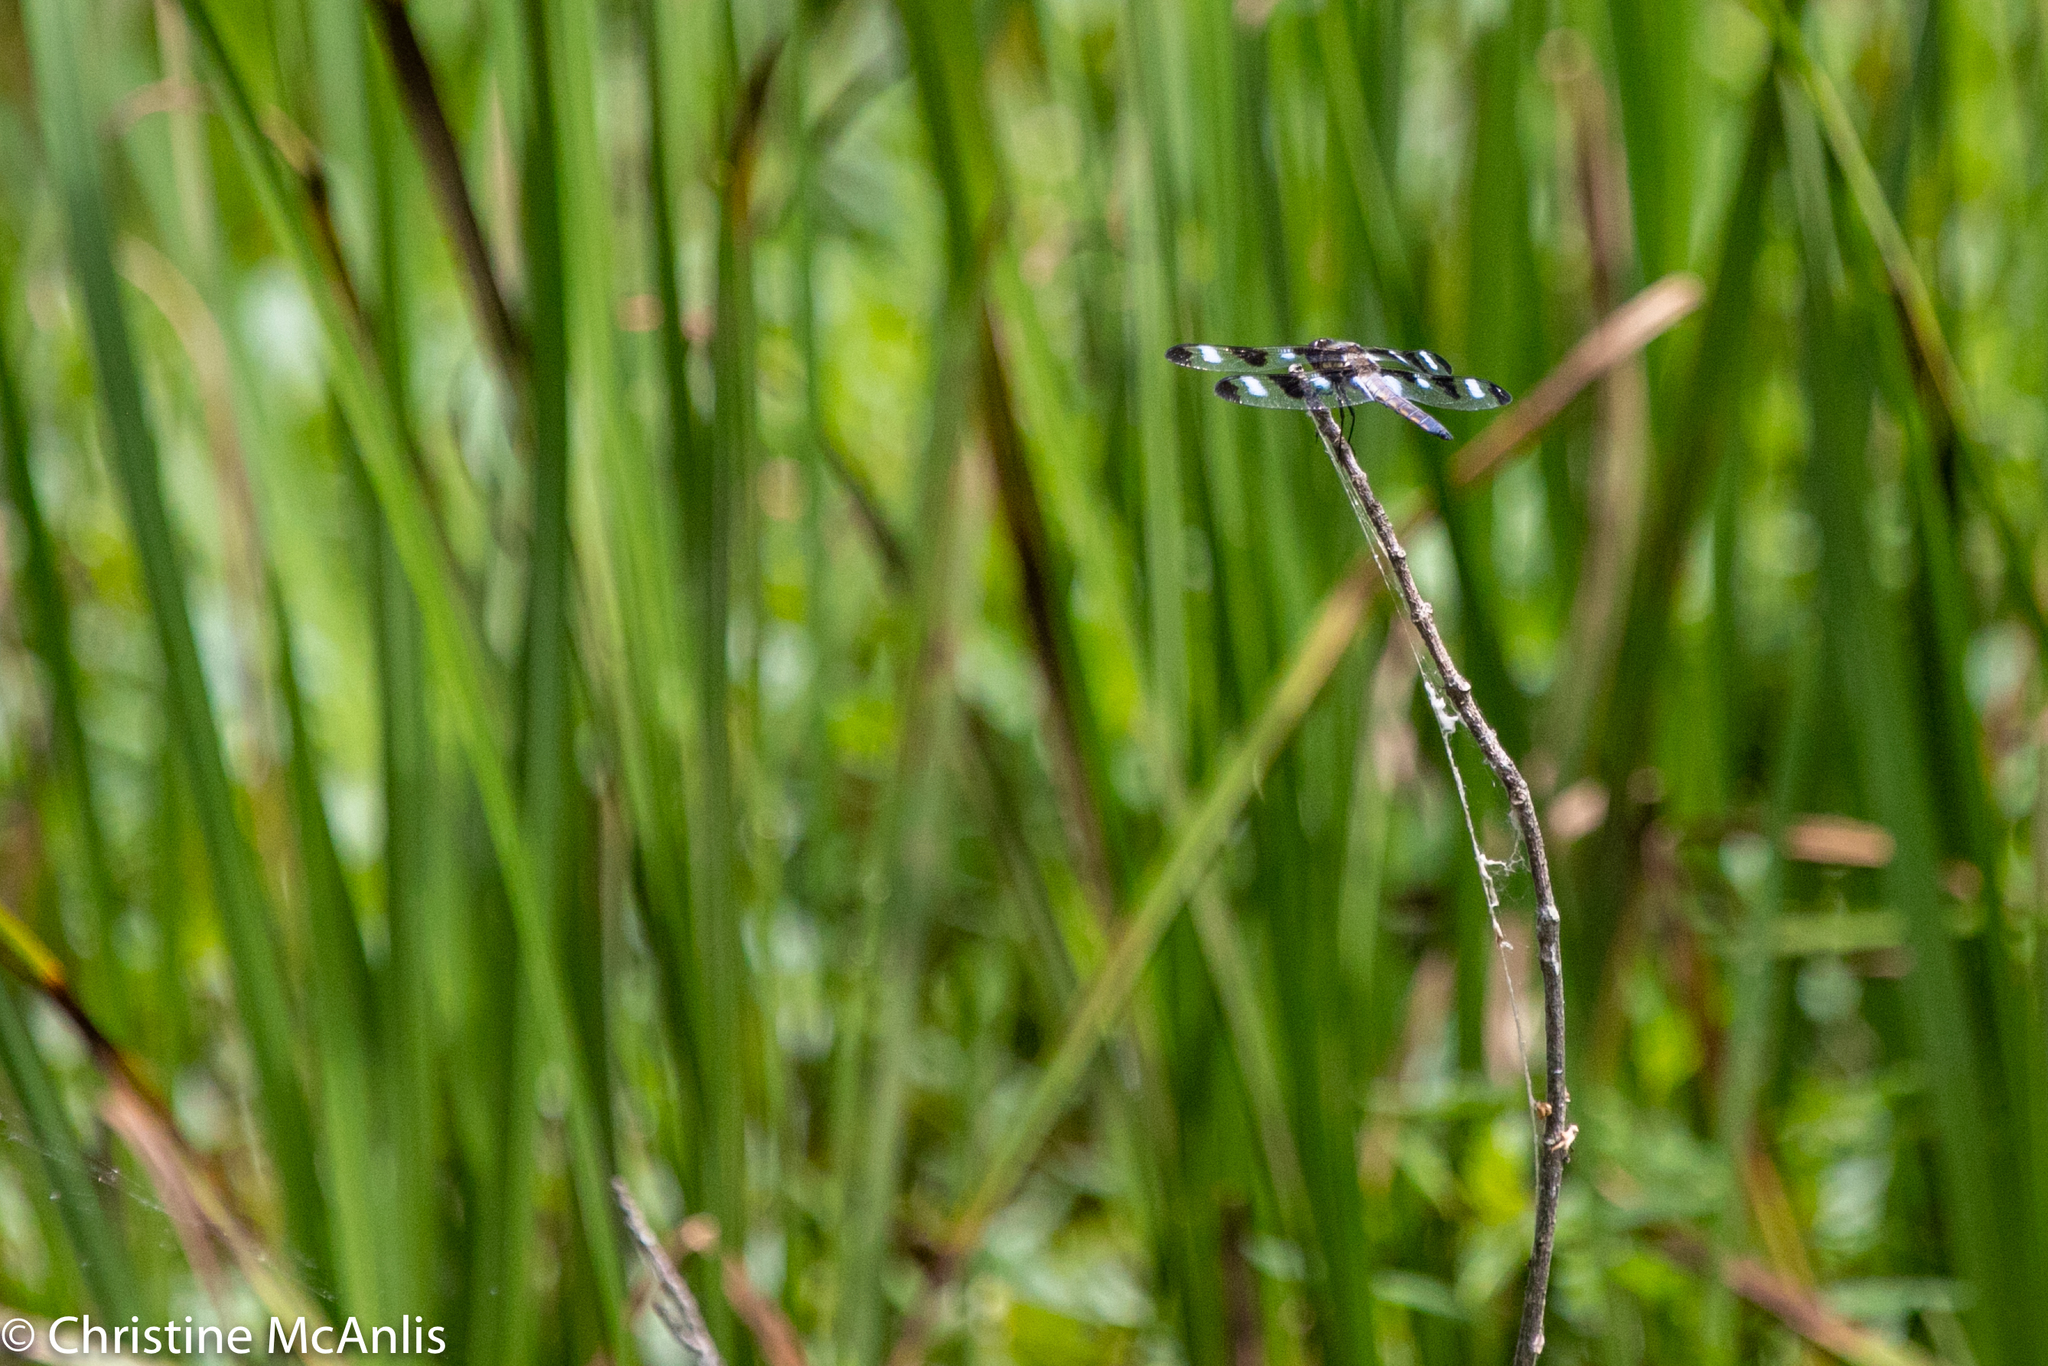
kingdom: Animalia
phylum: Arthropoda
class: Insecta
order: Odonata
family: Libellulidae
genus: Libellula
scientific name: Libellula pulchella
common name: Twelve-spotted skimmer
